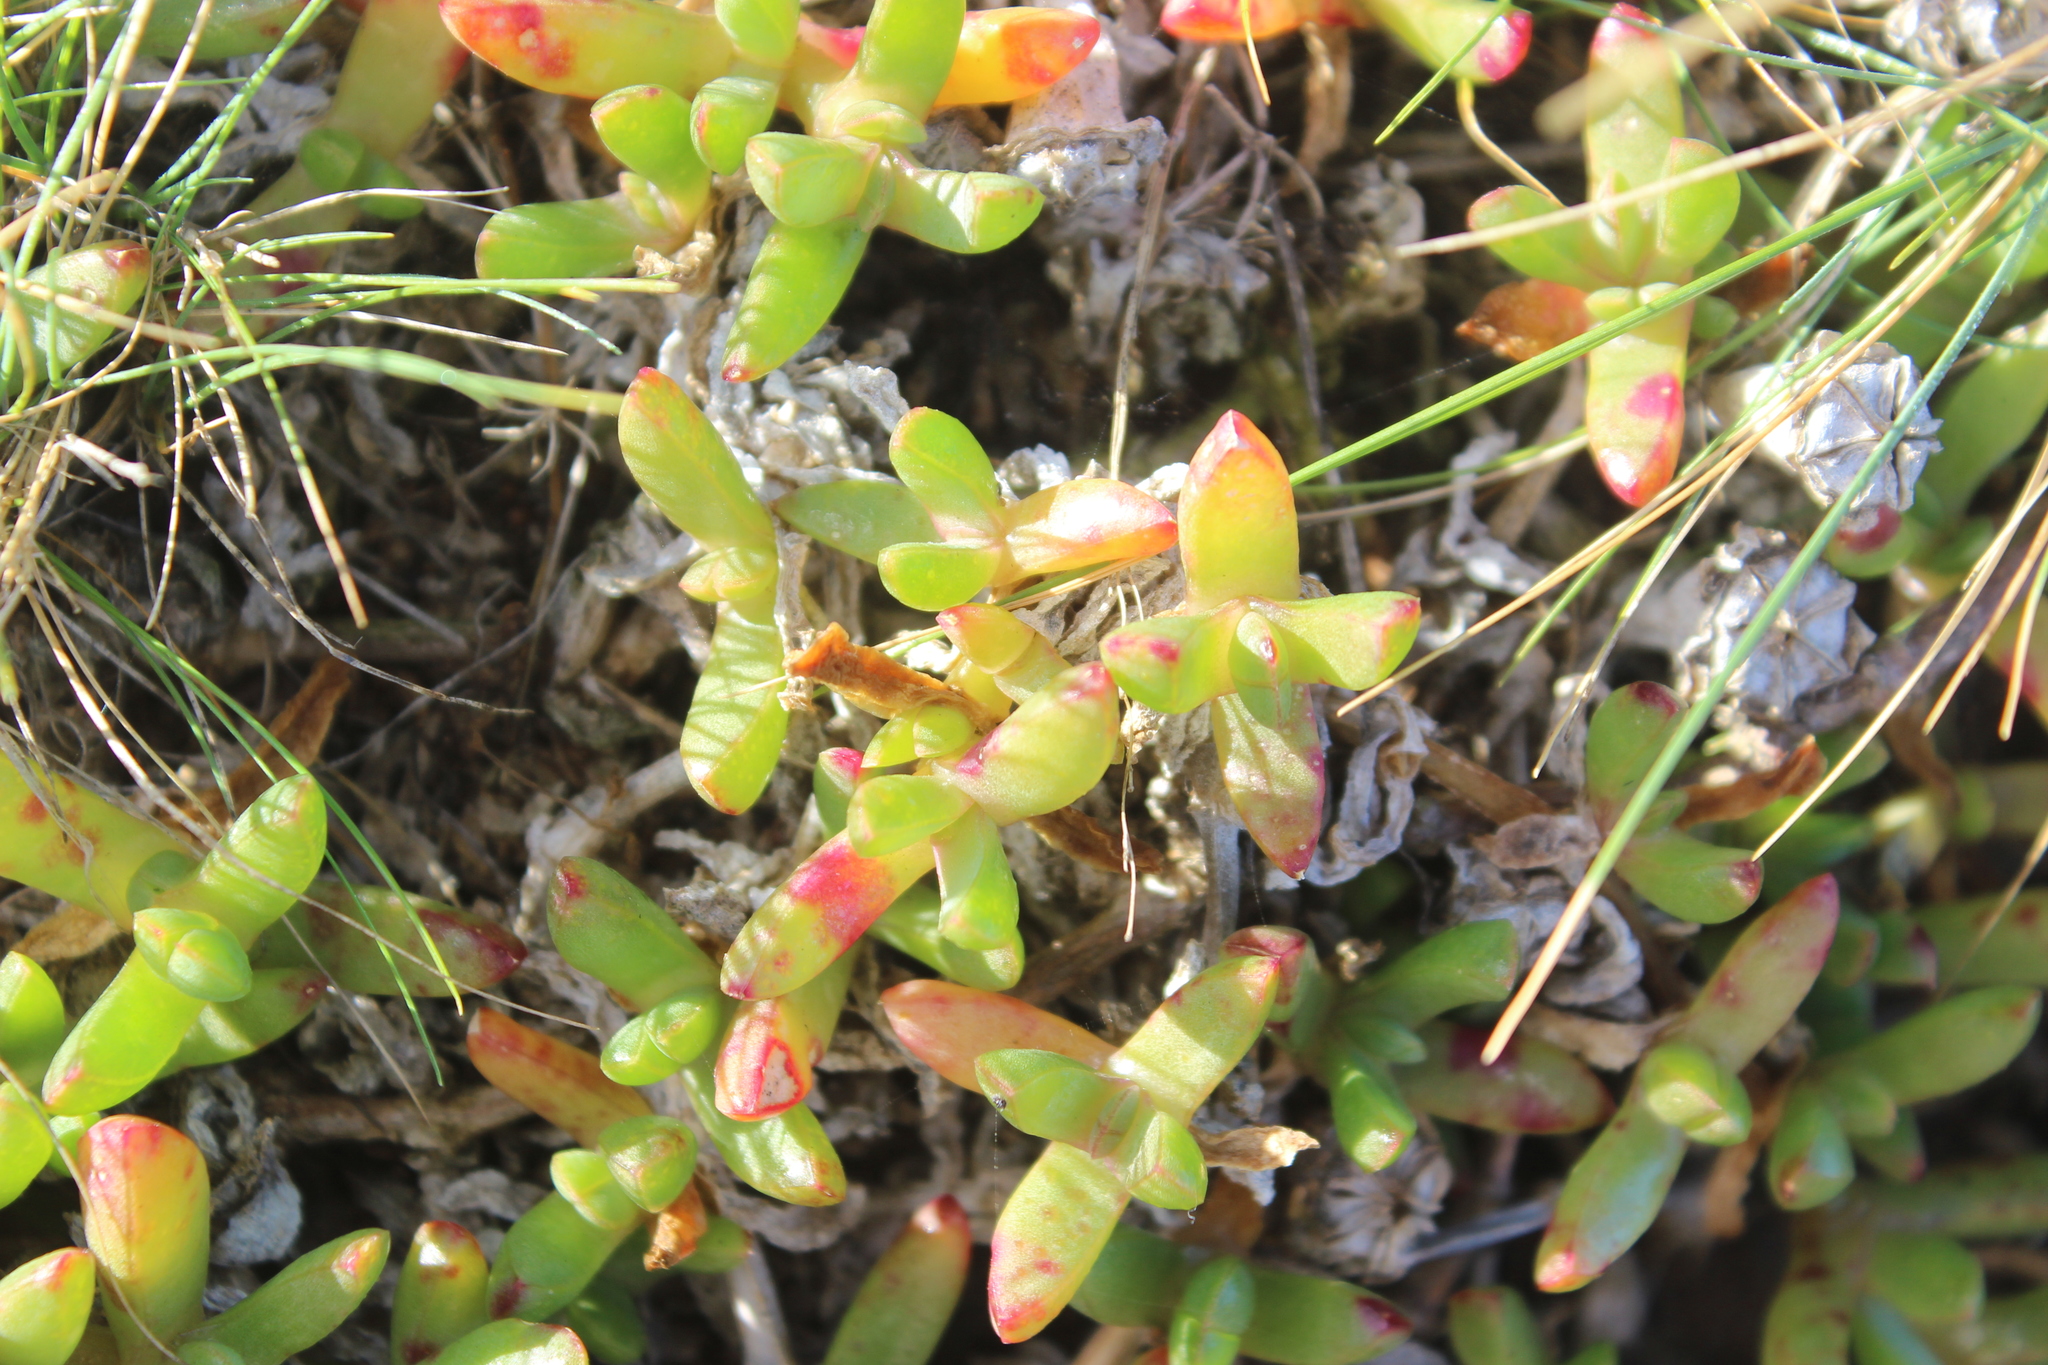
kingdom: Plantae
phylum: Tracheophyta
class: Magnoliopsida
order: Caryophyllales
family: Aizoaceae
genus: Disphyma
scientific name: Disphyma australe
